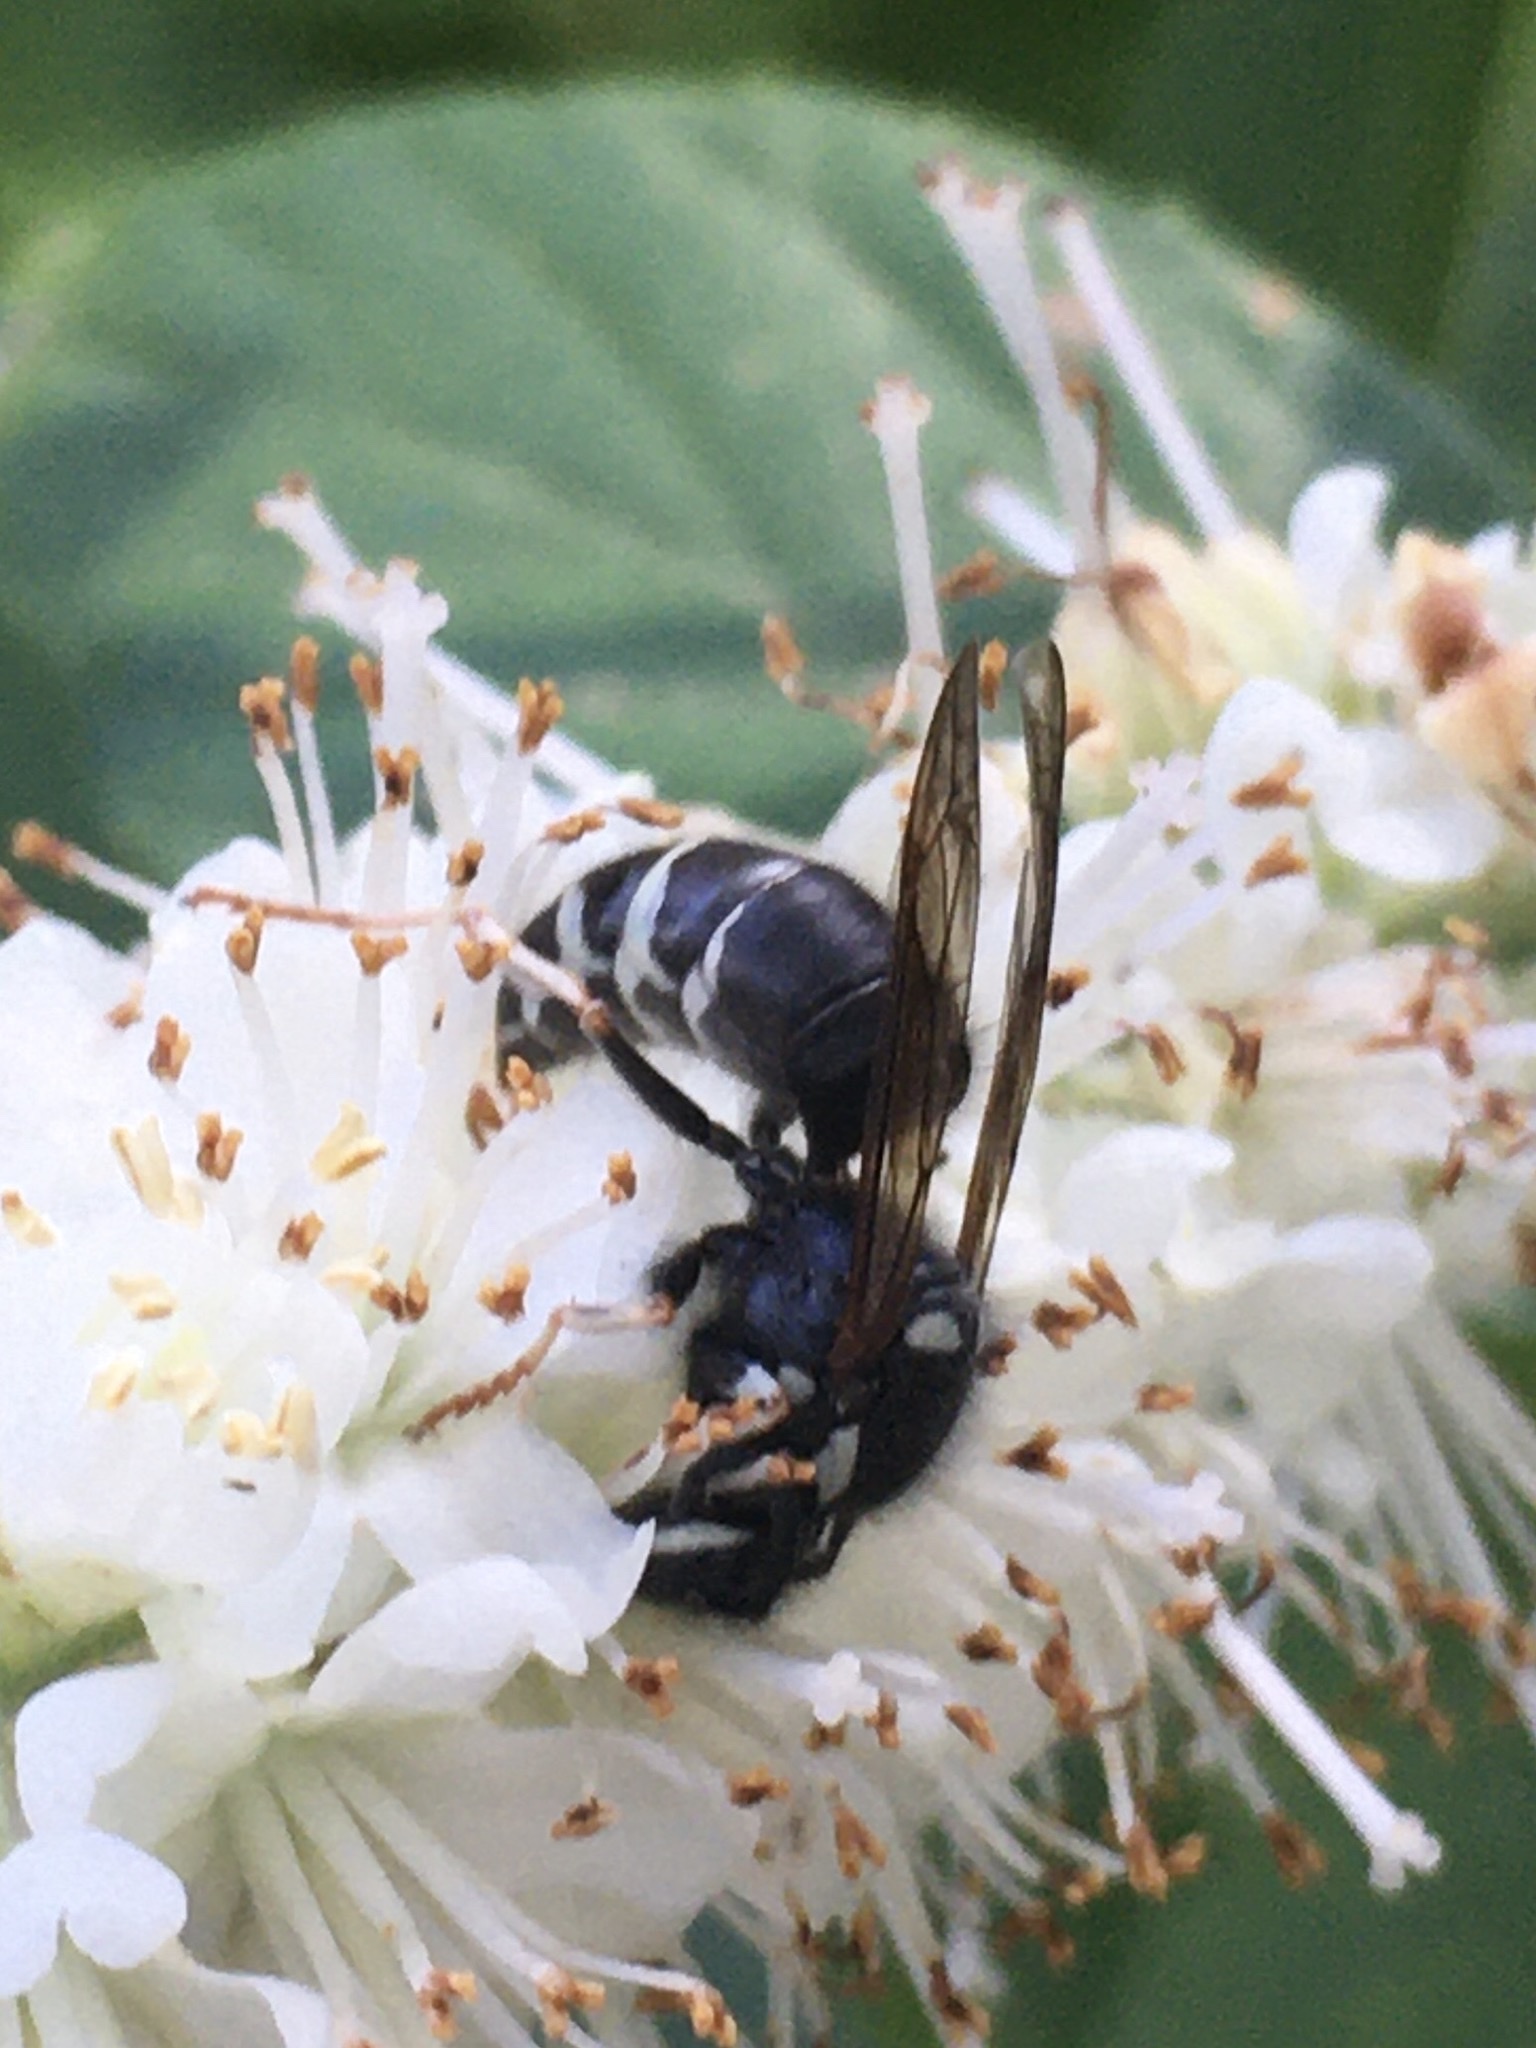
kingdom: Animalia
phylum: Arthropoda
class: Insecta
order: Hymenoptera
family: Vespidae
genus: Vespula
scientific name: Vespula consobrina
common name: Blackjacket
